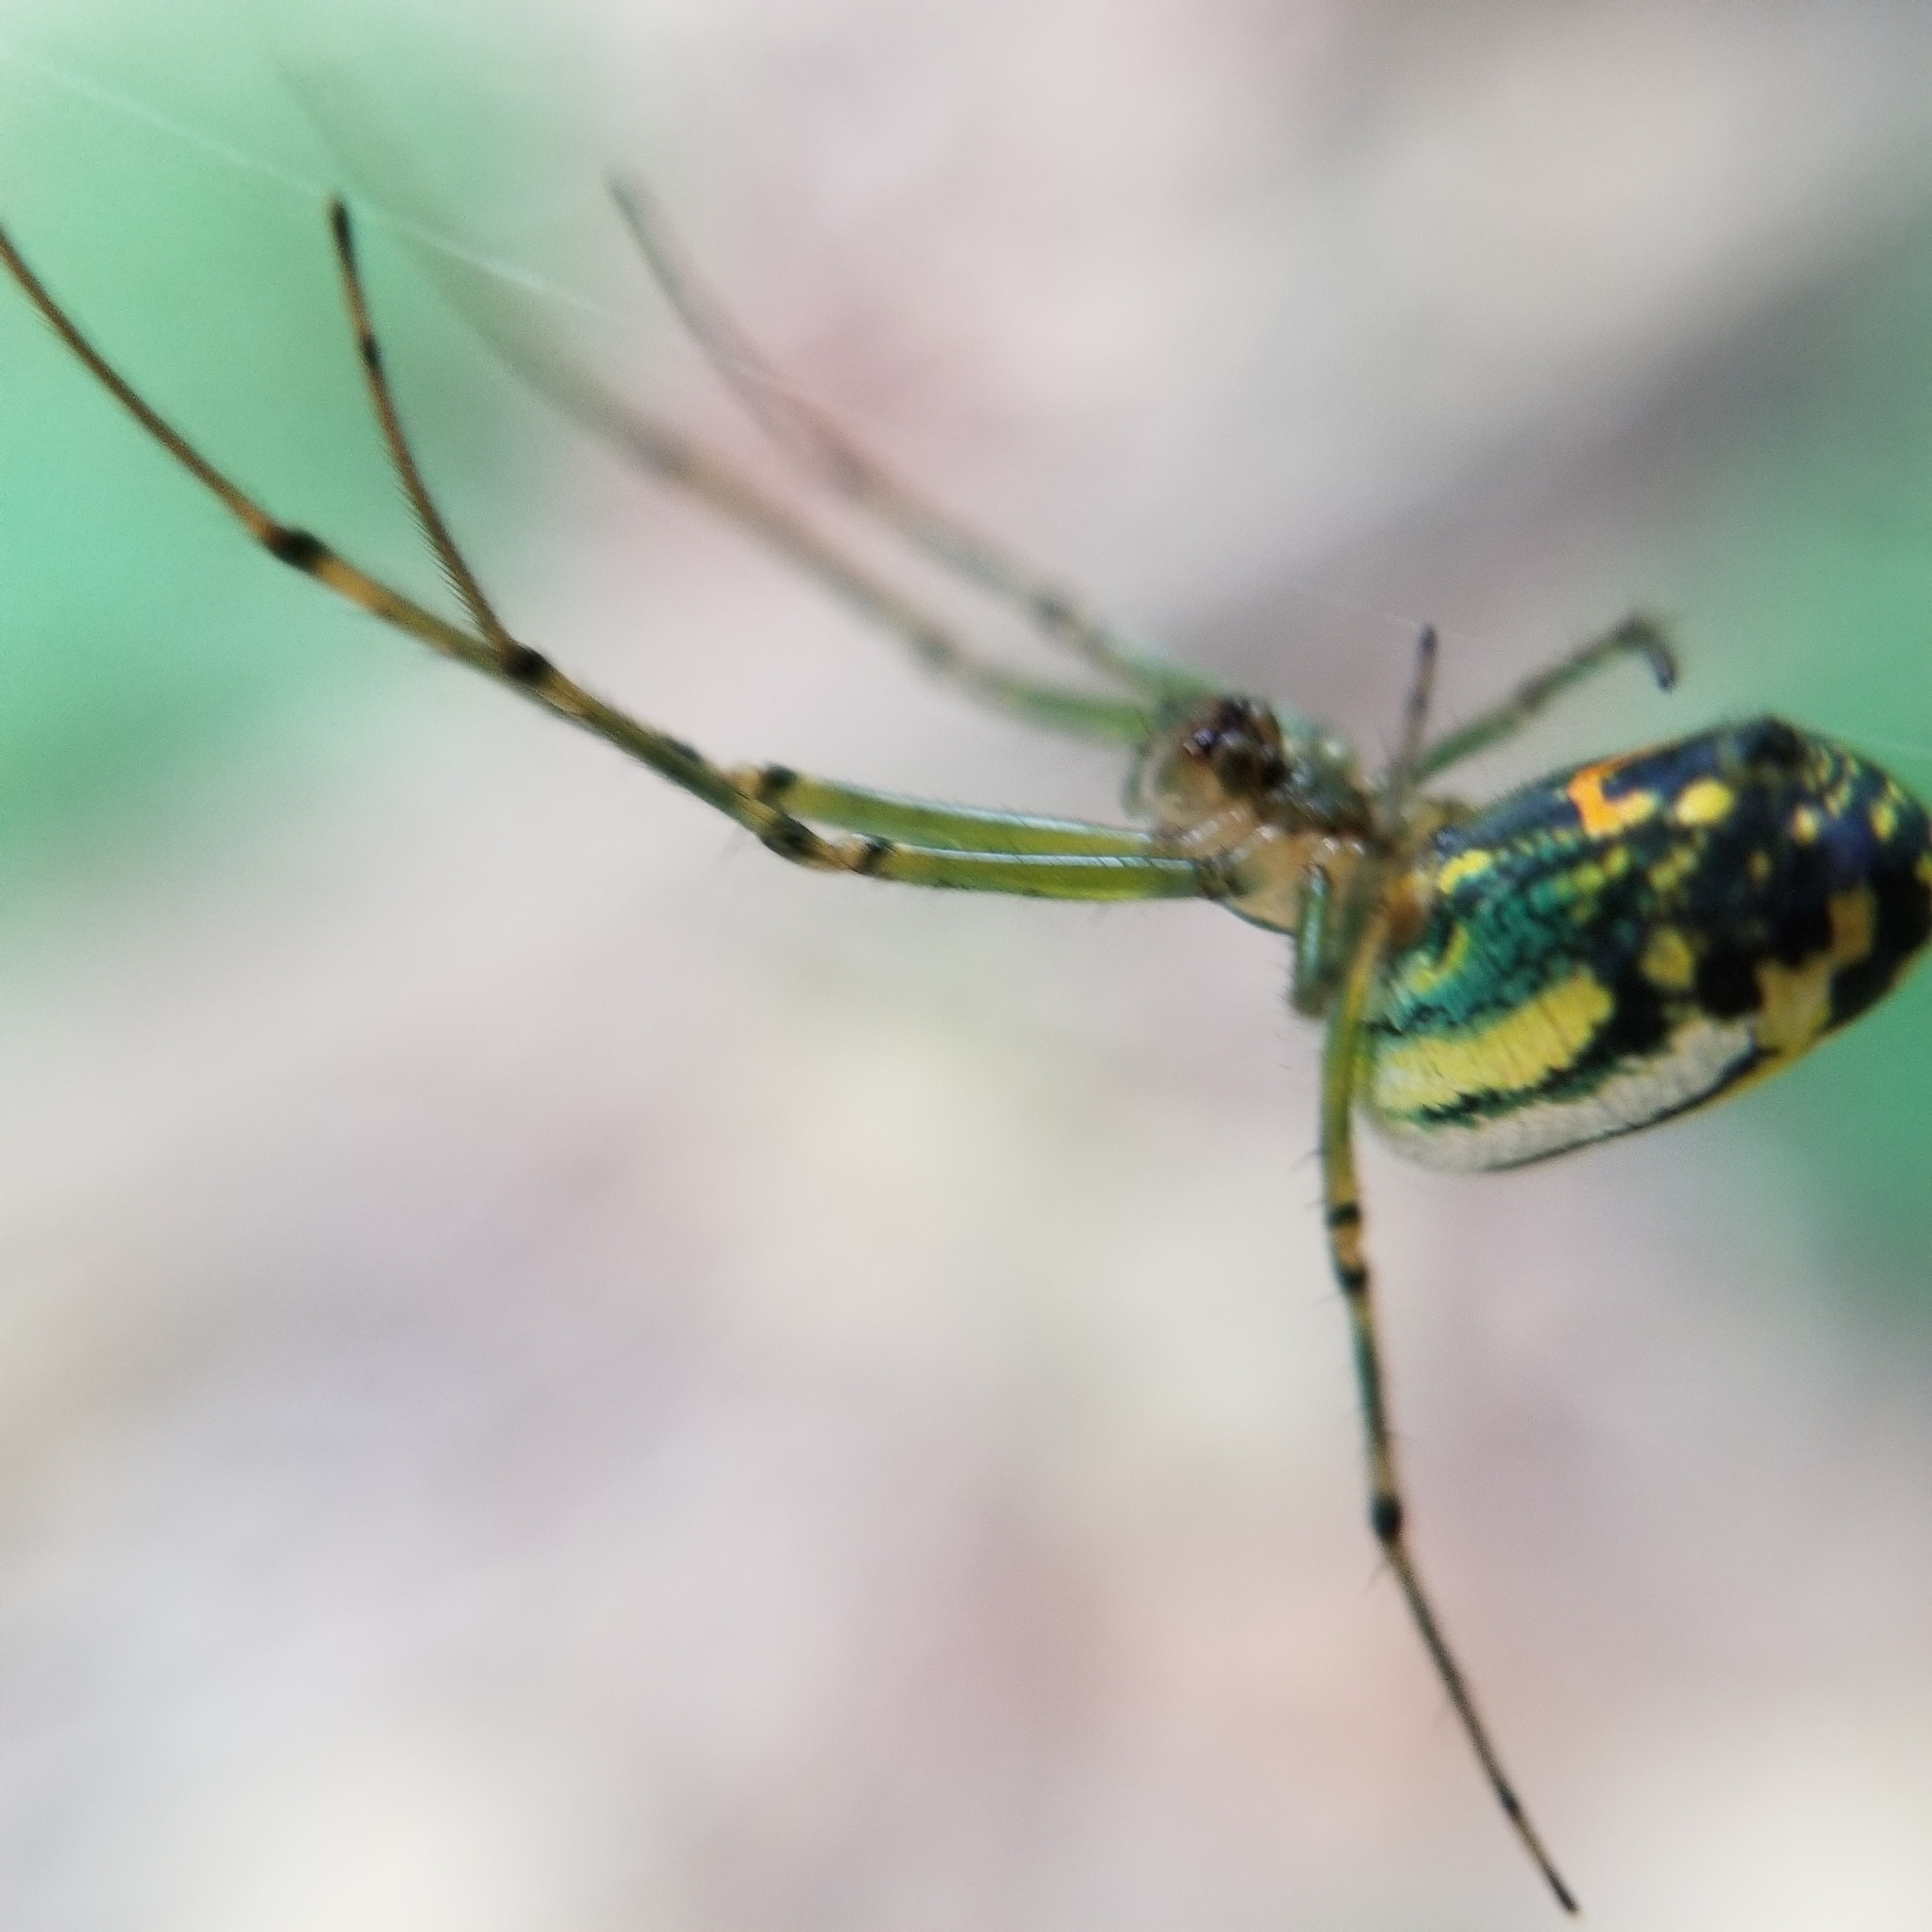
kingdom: Animalia
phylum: Arthropoda
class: Arachnida
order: Araneae
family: Tetragnathidae
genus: Leucauge
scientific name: Leucauge venusta
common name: Longjawed orb weavers
